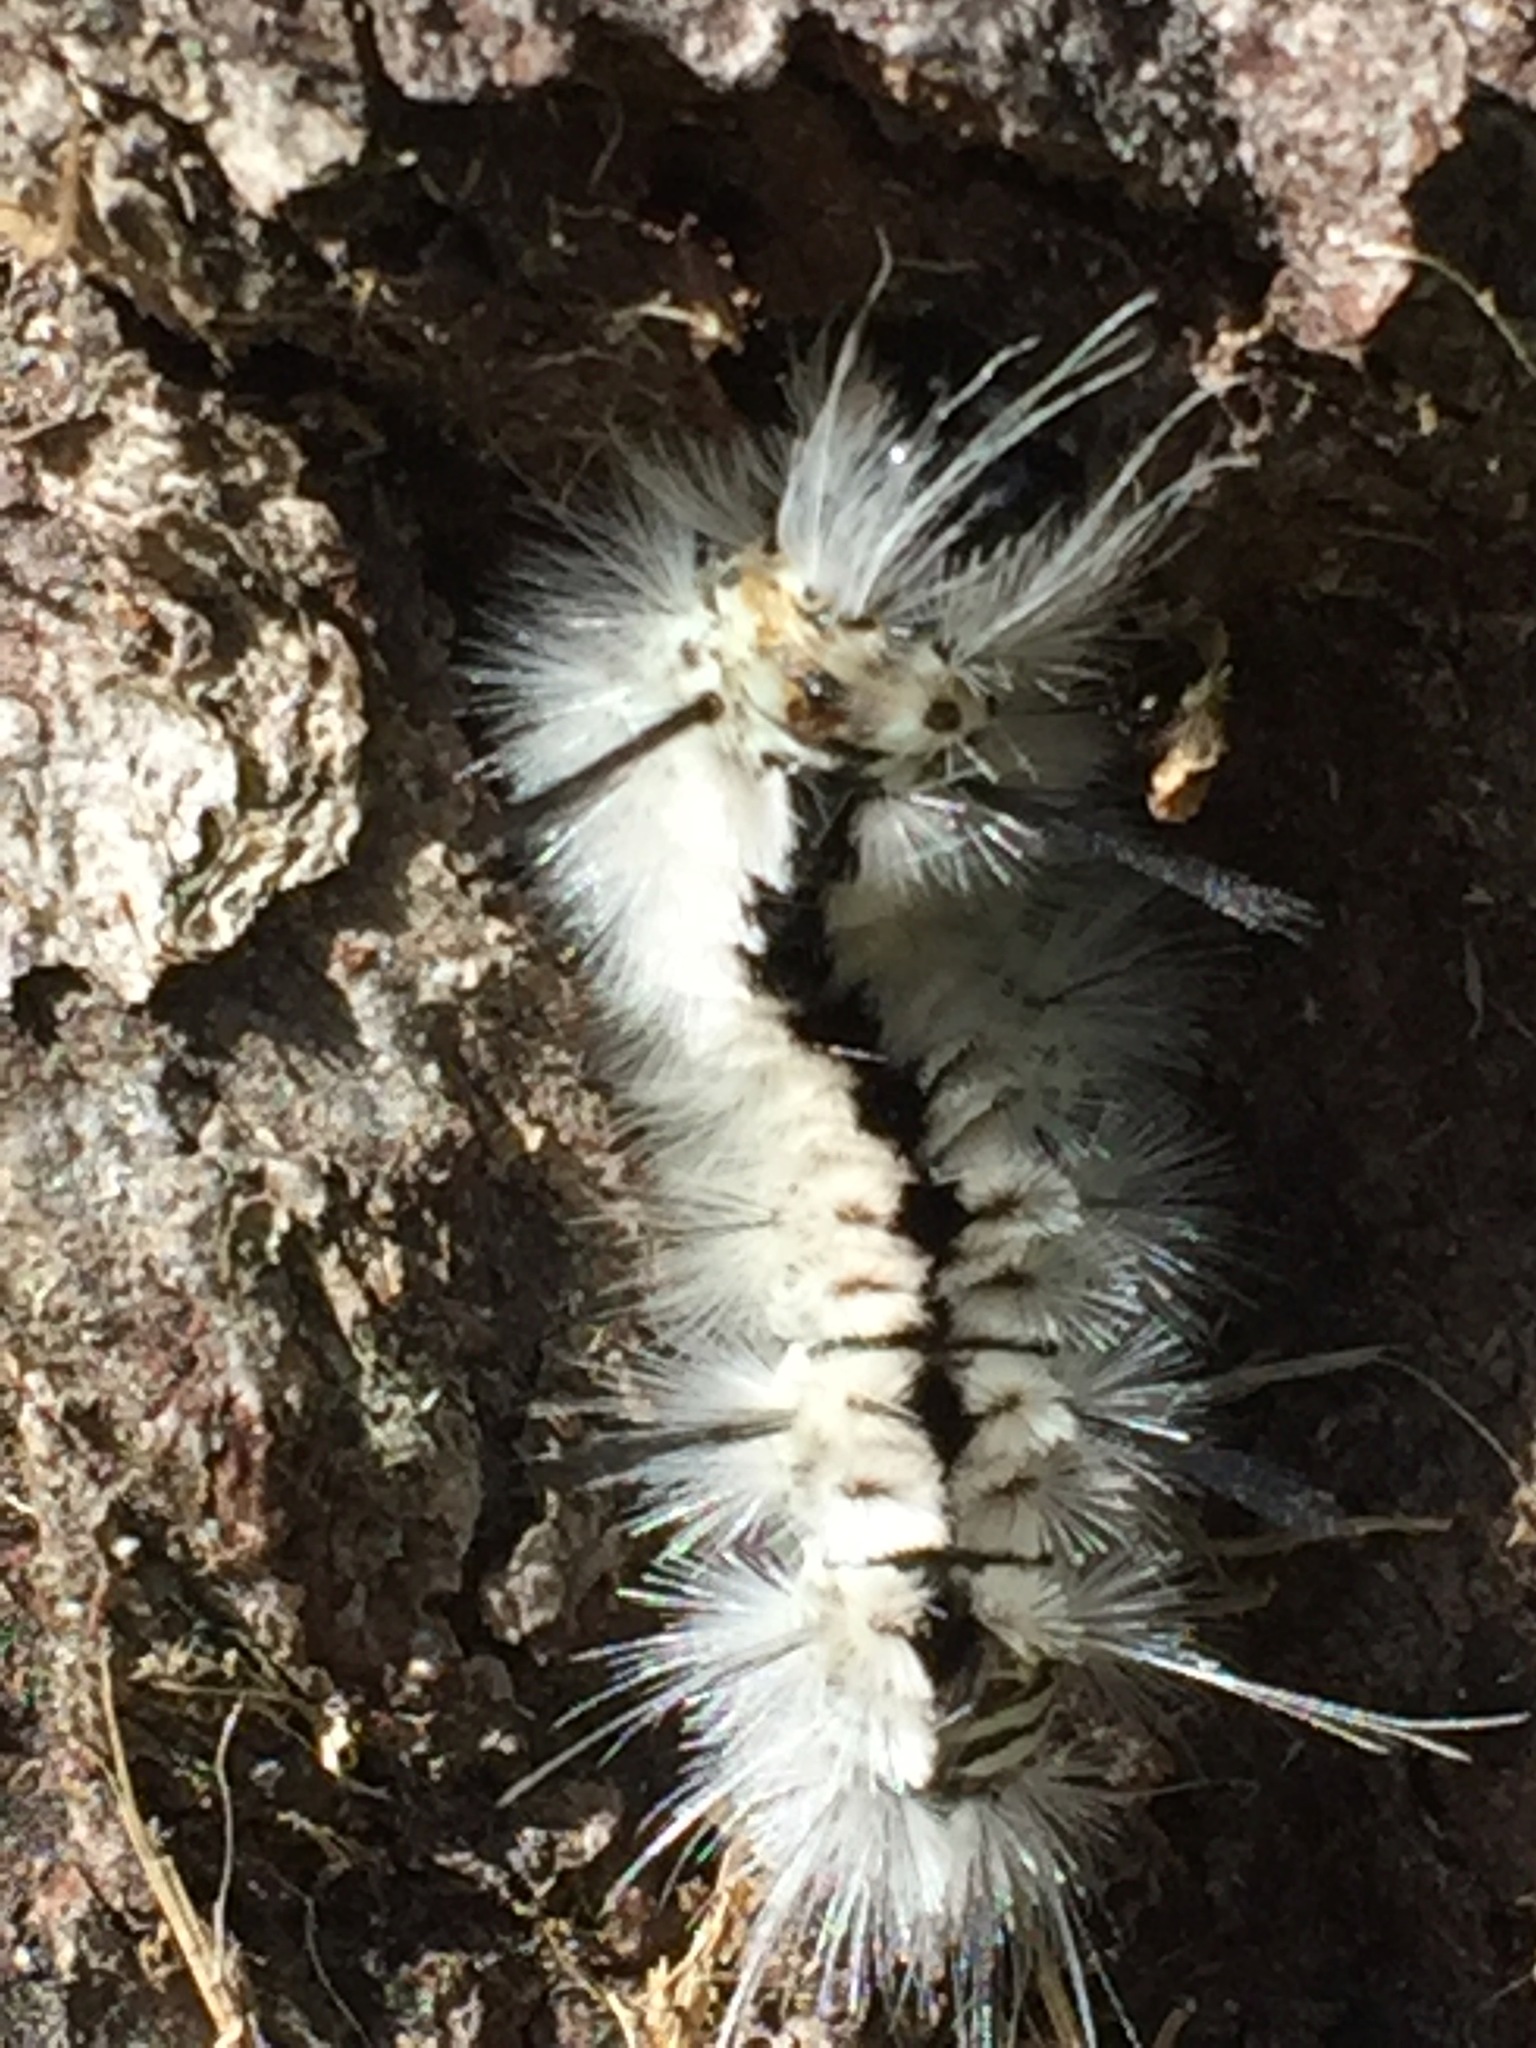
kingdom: Animalia
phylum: Arthropoda
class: Insecta
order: Lepidoptera
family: Erebidae
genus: Lophocampa
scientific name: Lophocampa caryae
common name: Hickory tussock moth
